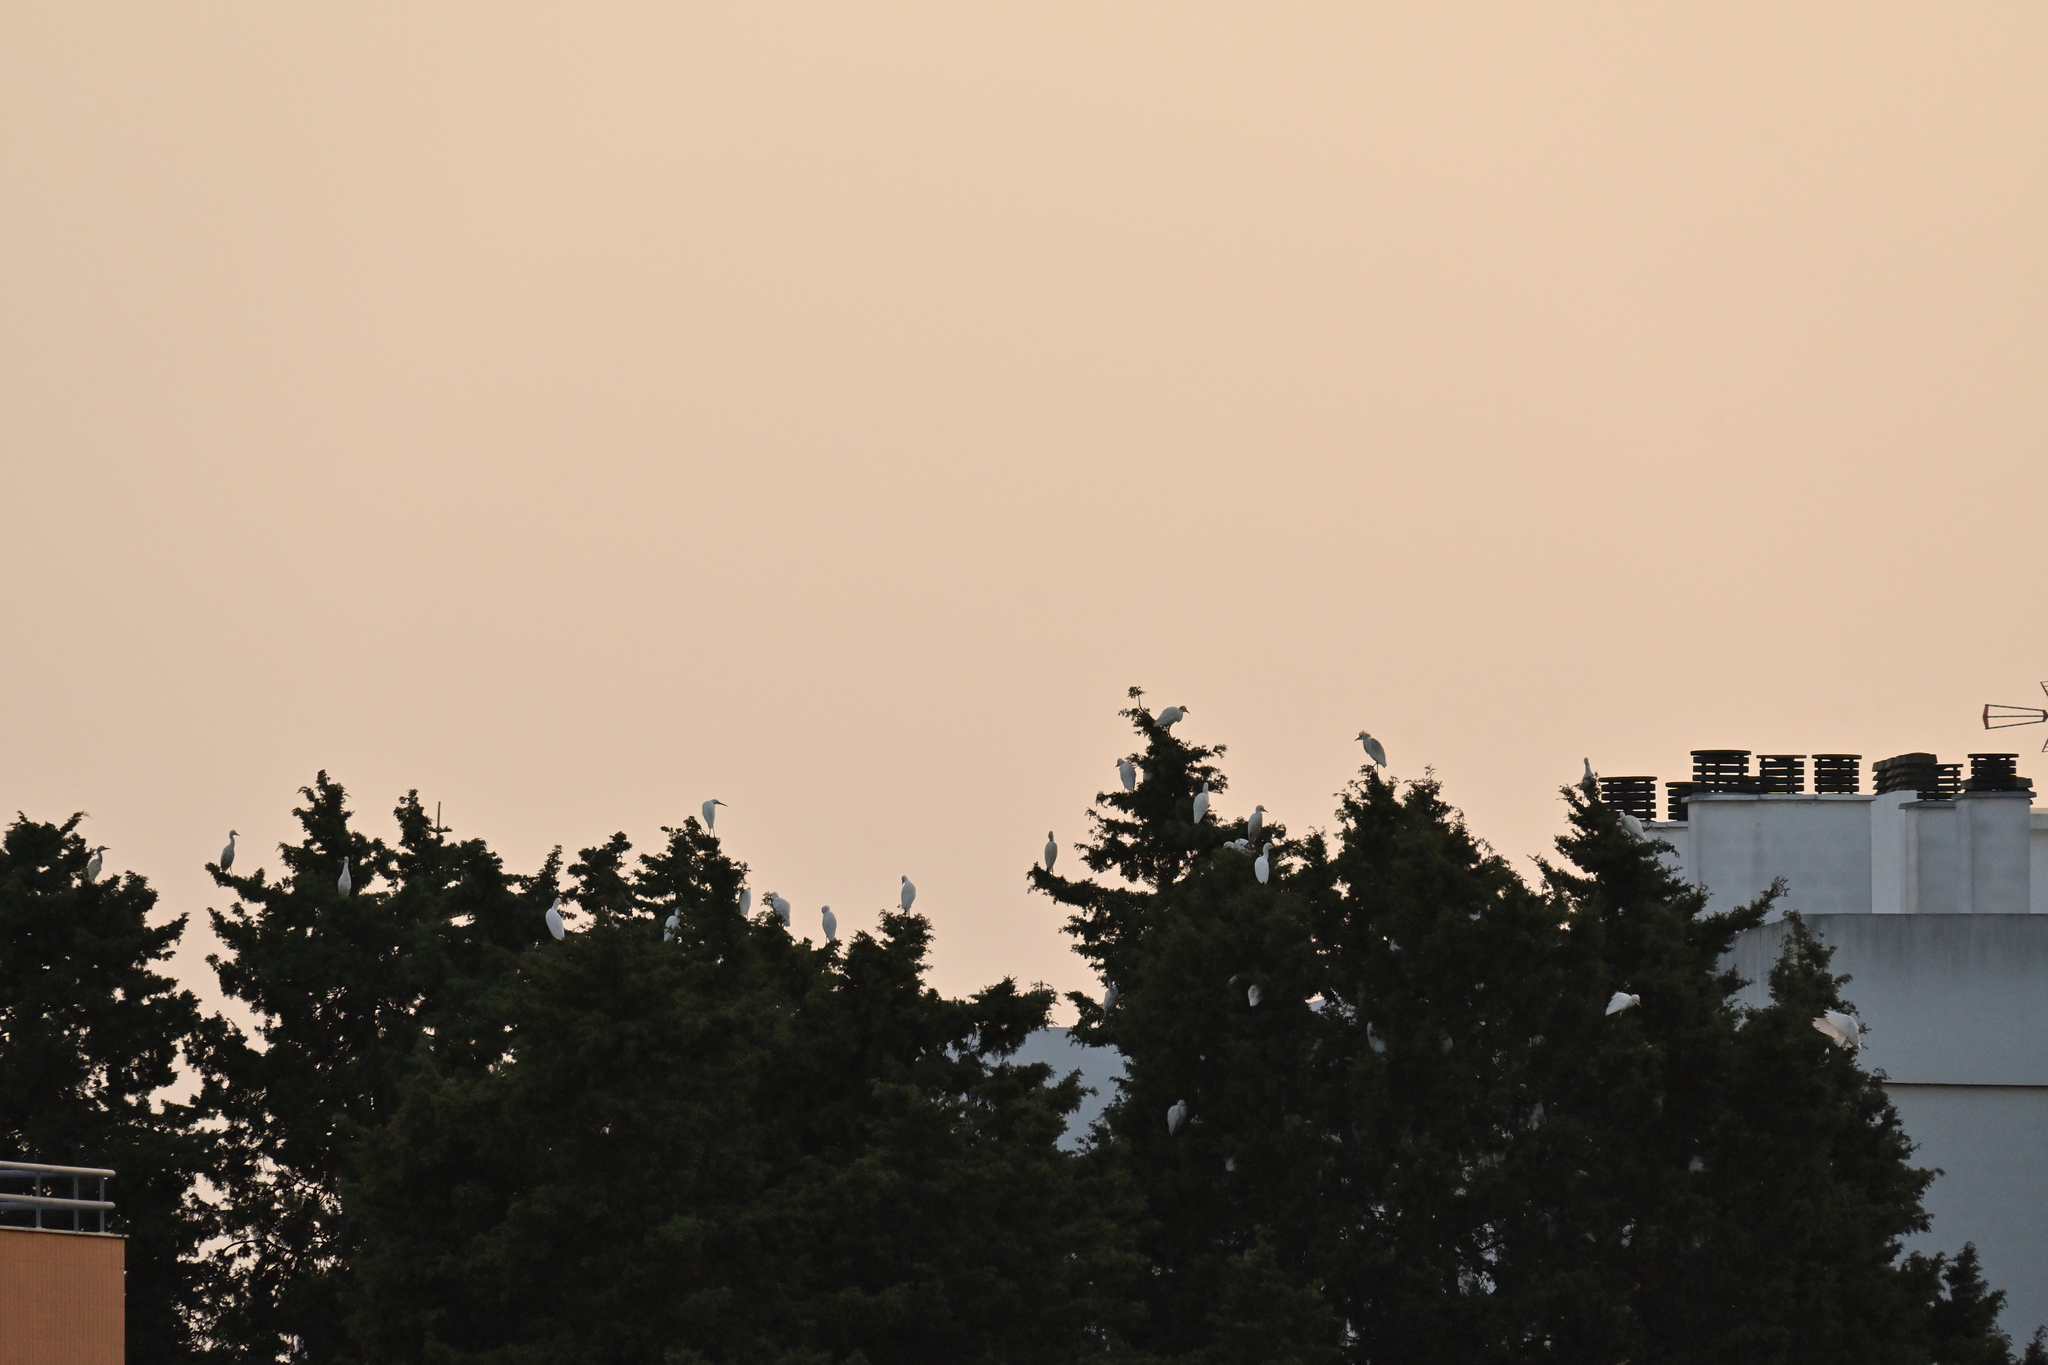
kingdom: Animalia
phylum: Chordata
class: Aves
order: Pelecaniformes
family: Ardeidae
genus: Bubulcus
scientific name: Bubulcus ibis
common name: Cattle egret
